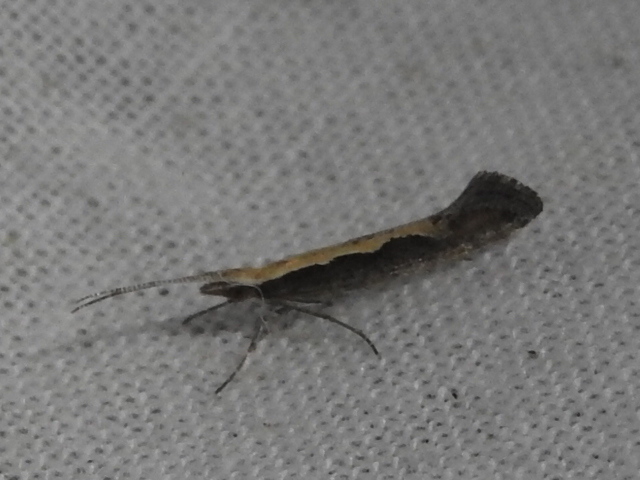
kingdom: Animalia
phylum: Arthropoda
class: Insecta
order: Lepidoptera
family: Plutellidae
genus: Plutella
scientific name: Plutella xylostella
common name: Diamond-back moth
